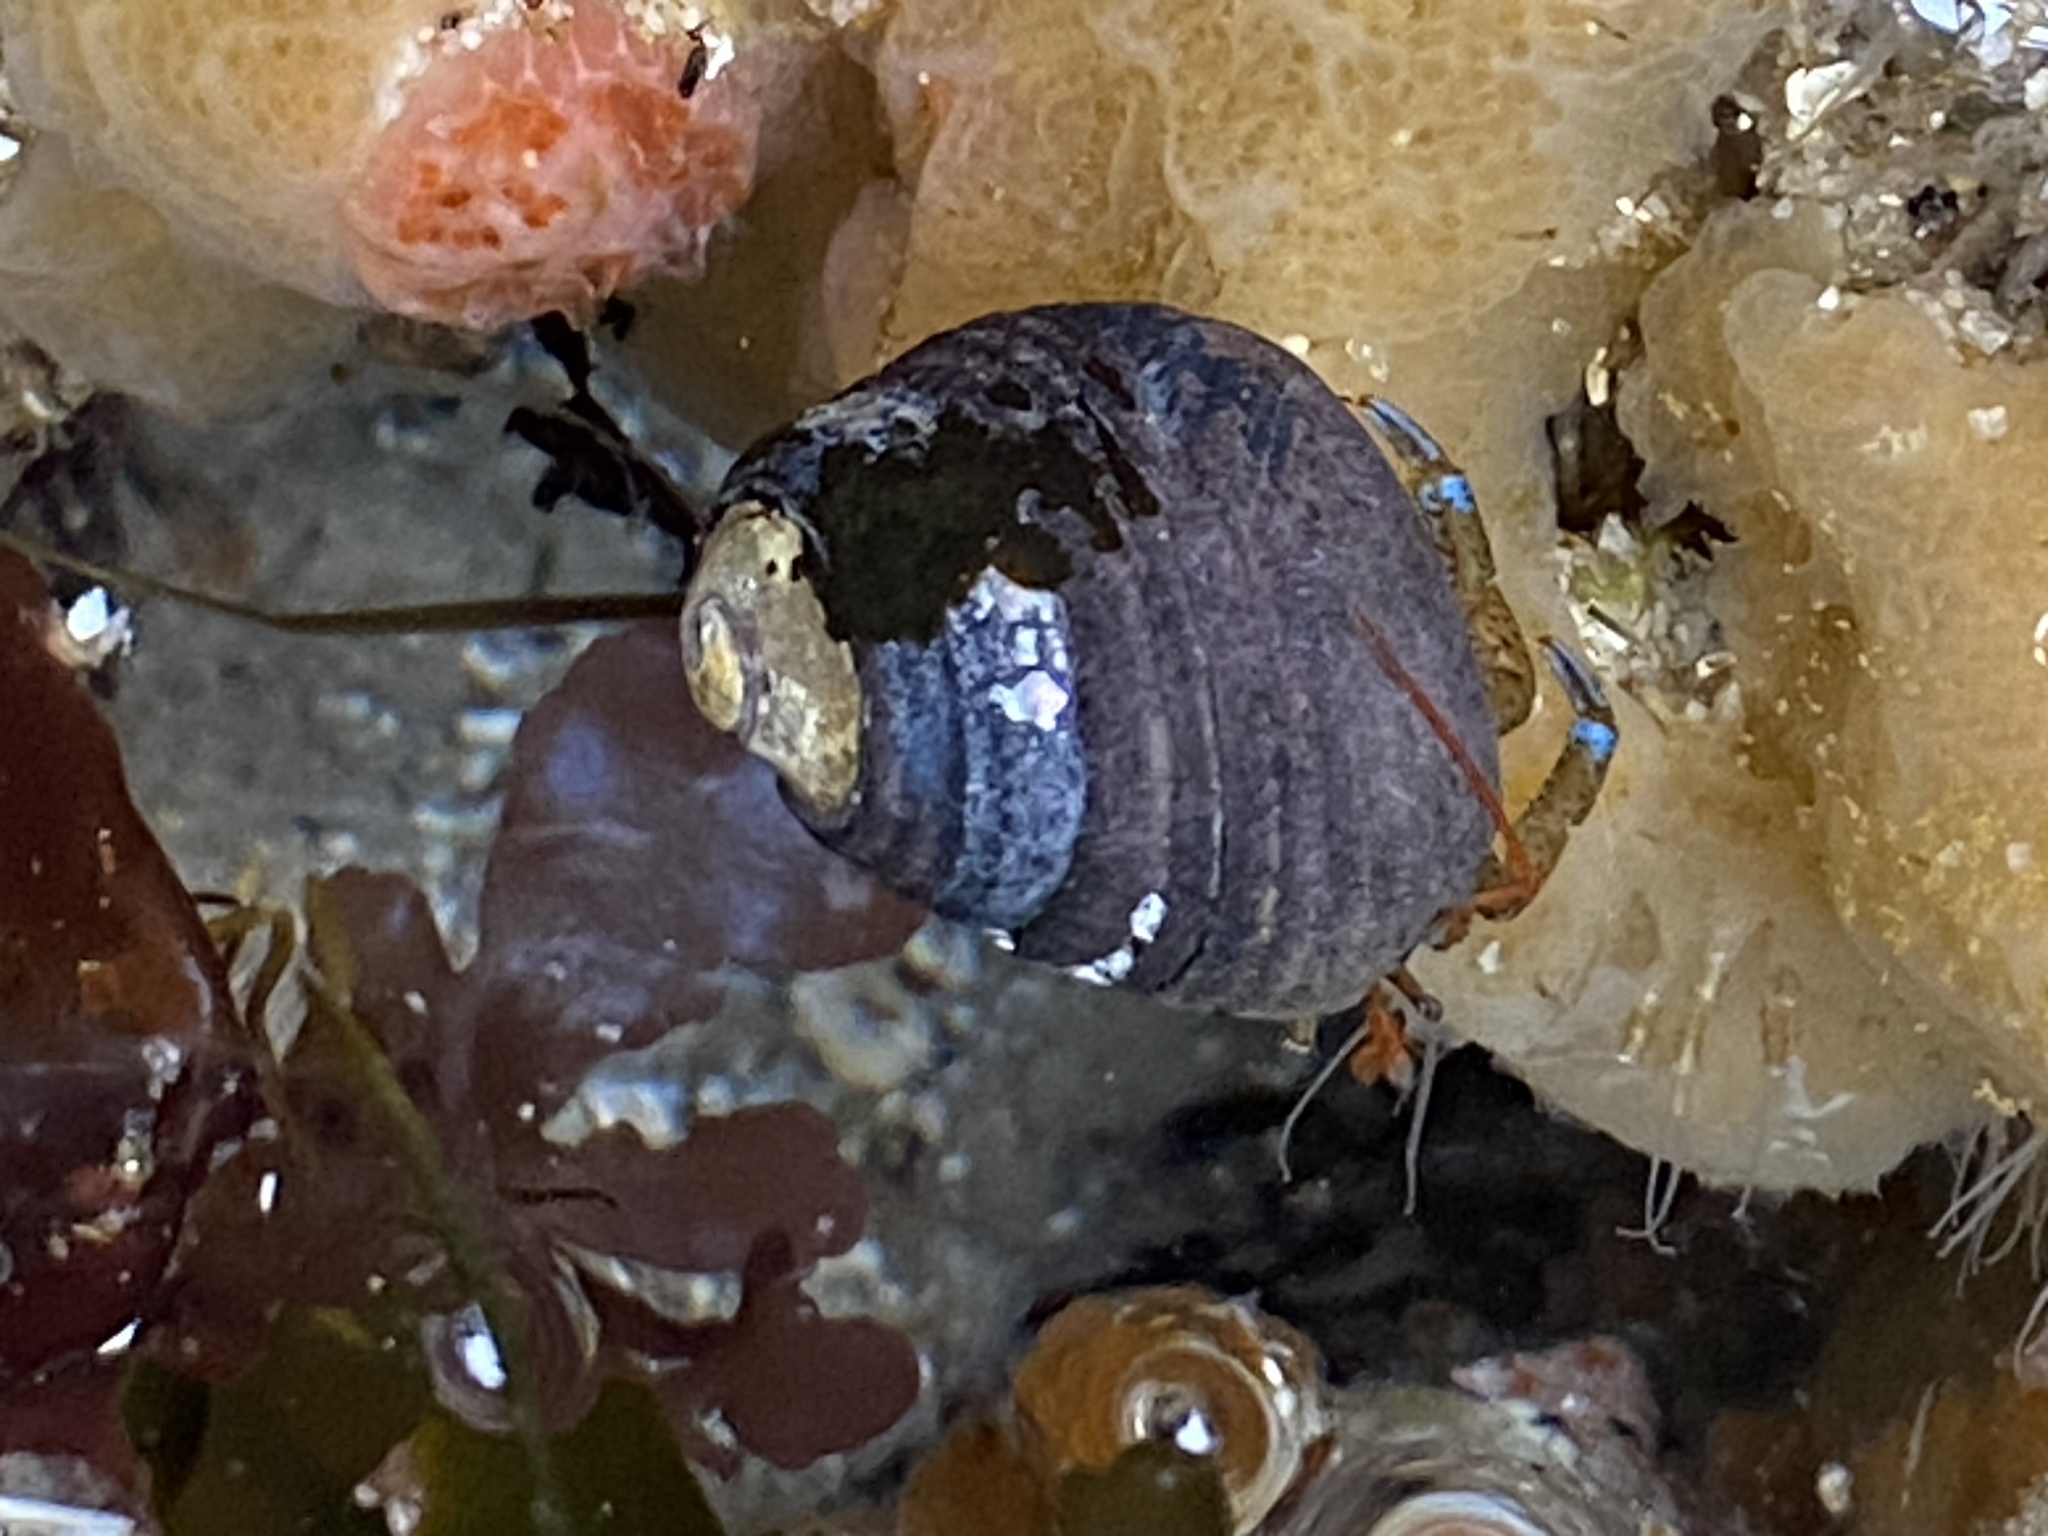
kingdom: Animalia
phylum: Arthropoda
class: Malacostraca
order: Decapoda
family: Paguridae
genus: Pagurus
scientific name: Pagurus samuelis
